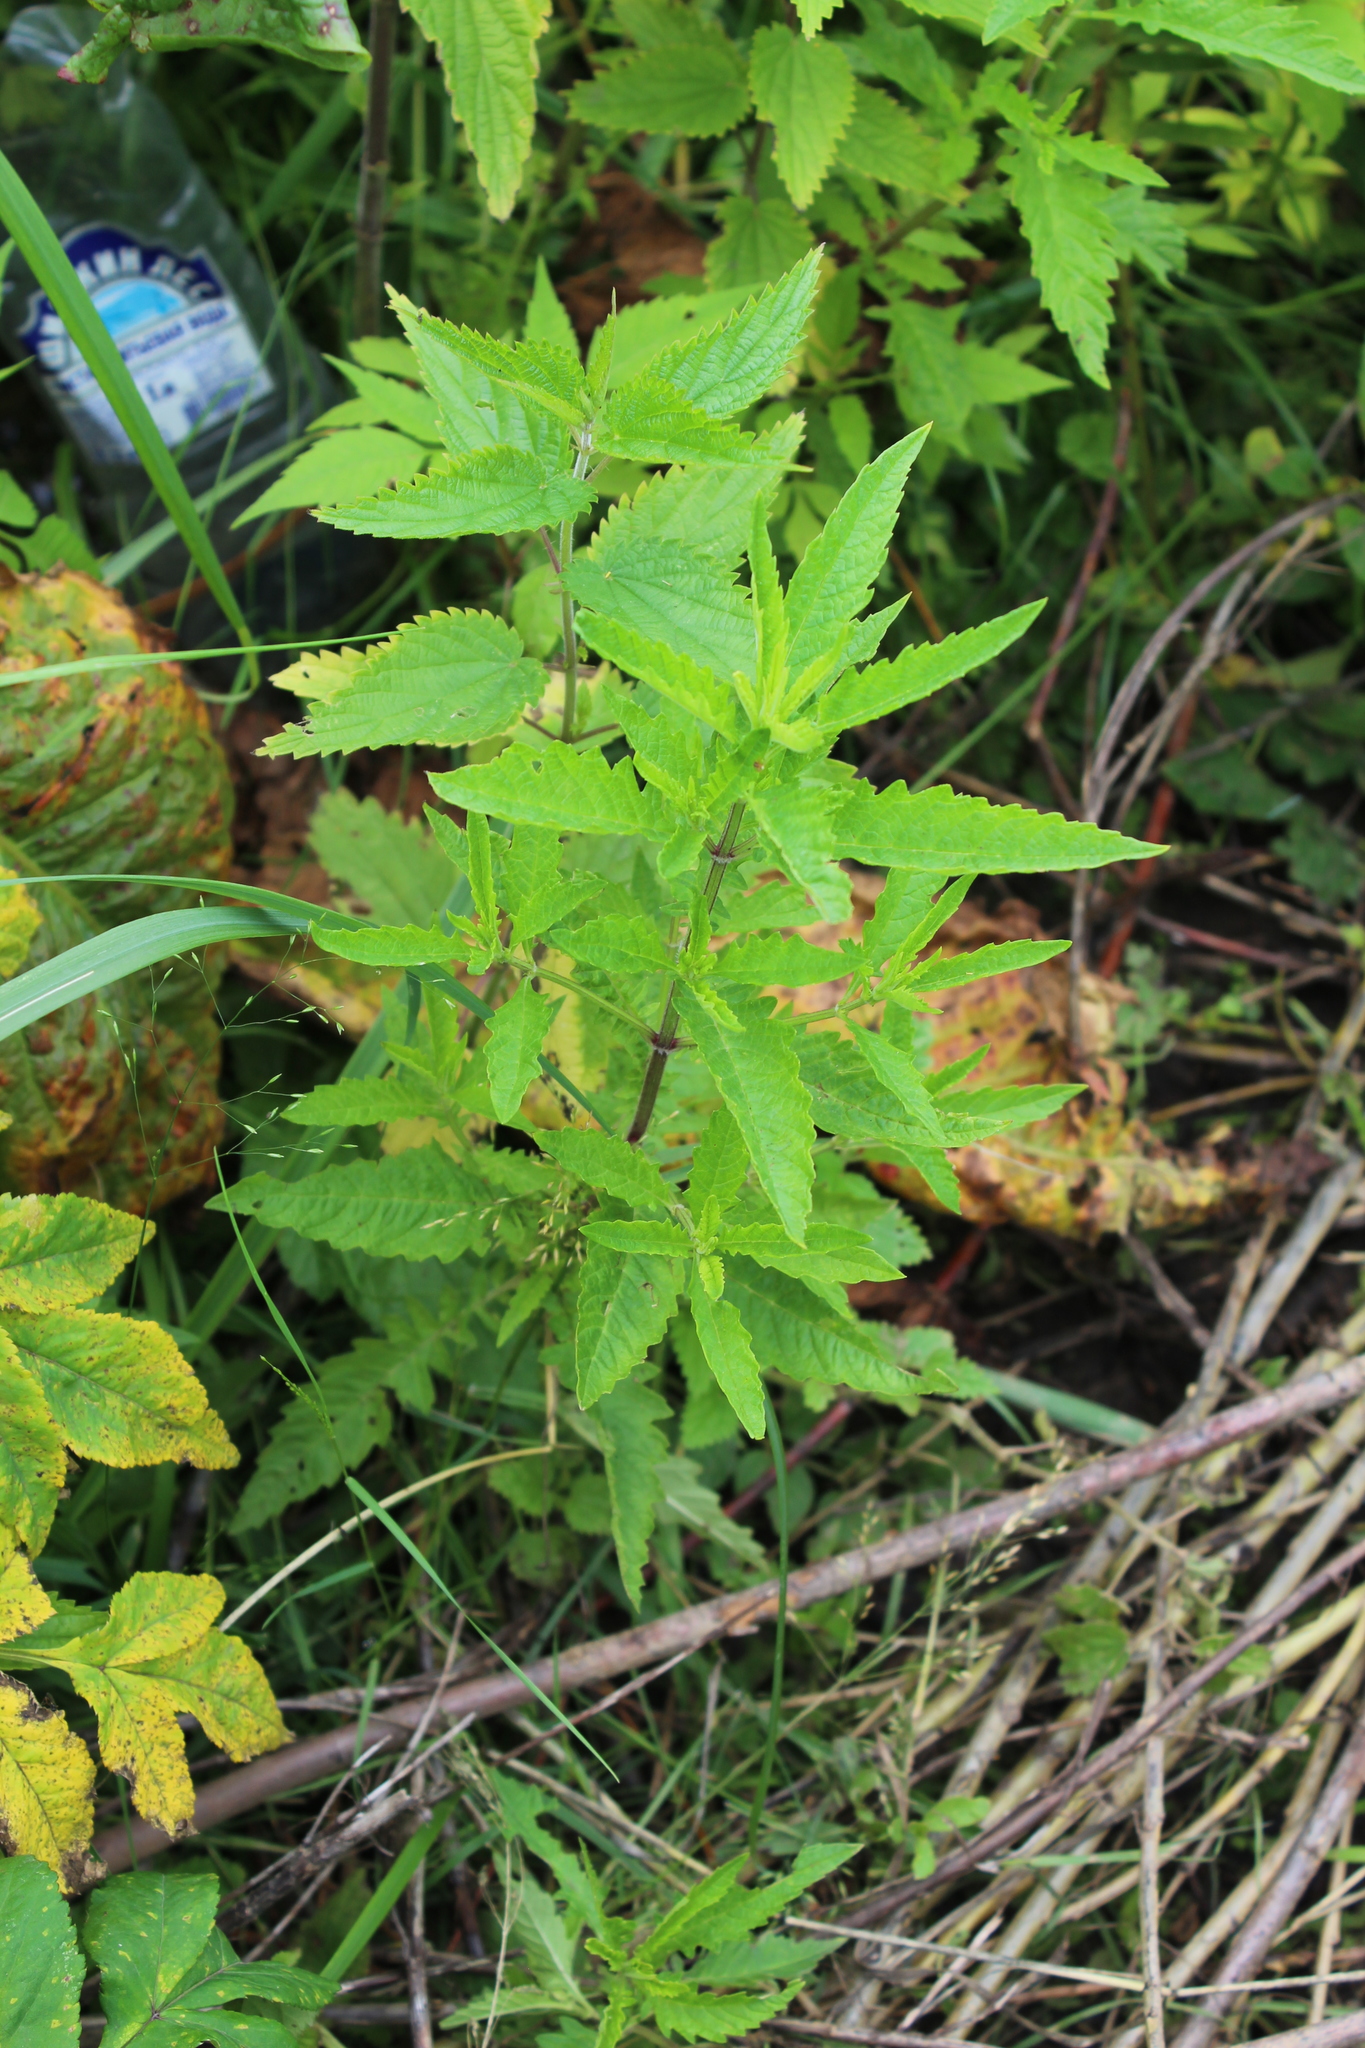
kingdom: Plantae
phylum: Tracheophyta
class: Magnoliopsida
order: Lamiales
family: Lamiaceae
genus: Lycopus
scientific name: Lycopus europaeus
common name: European bugleweed
